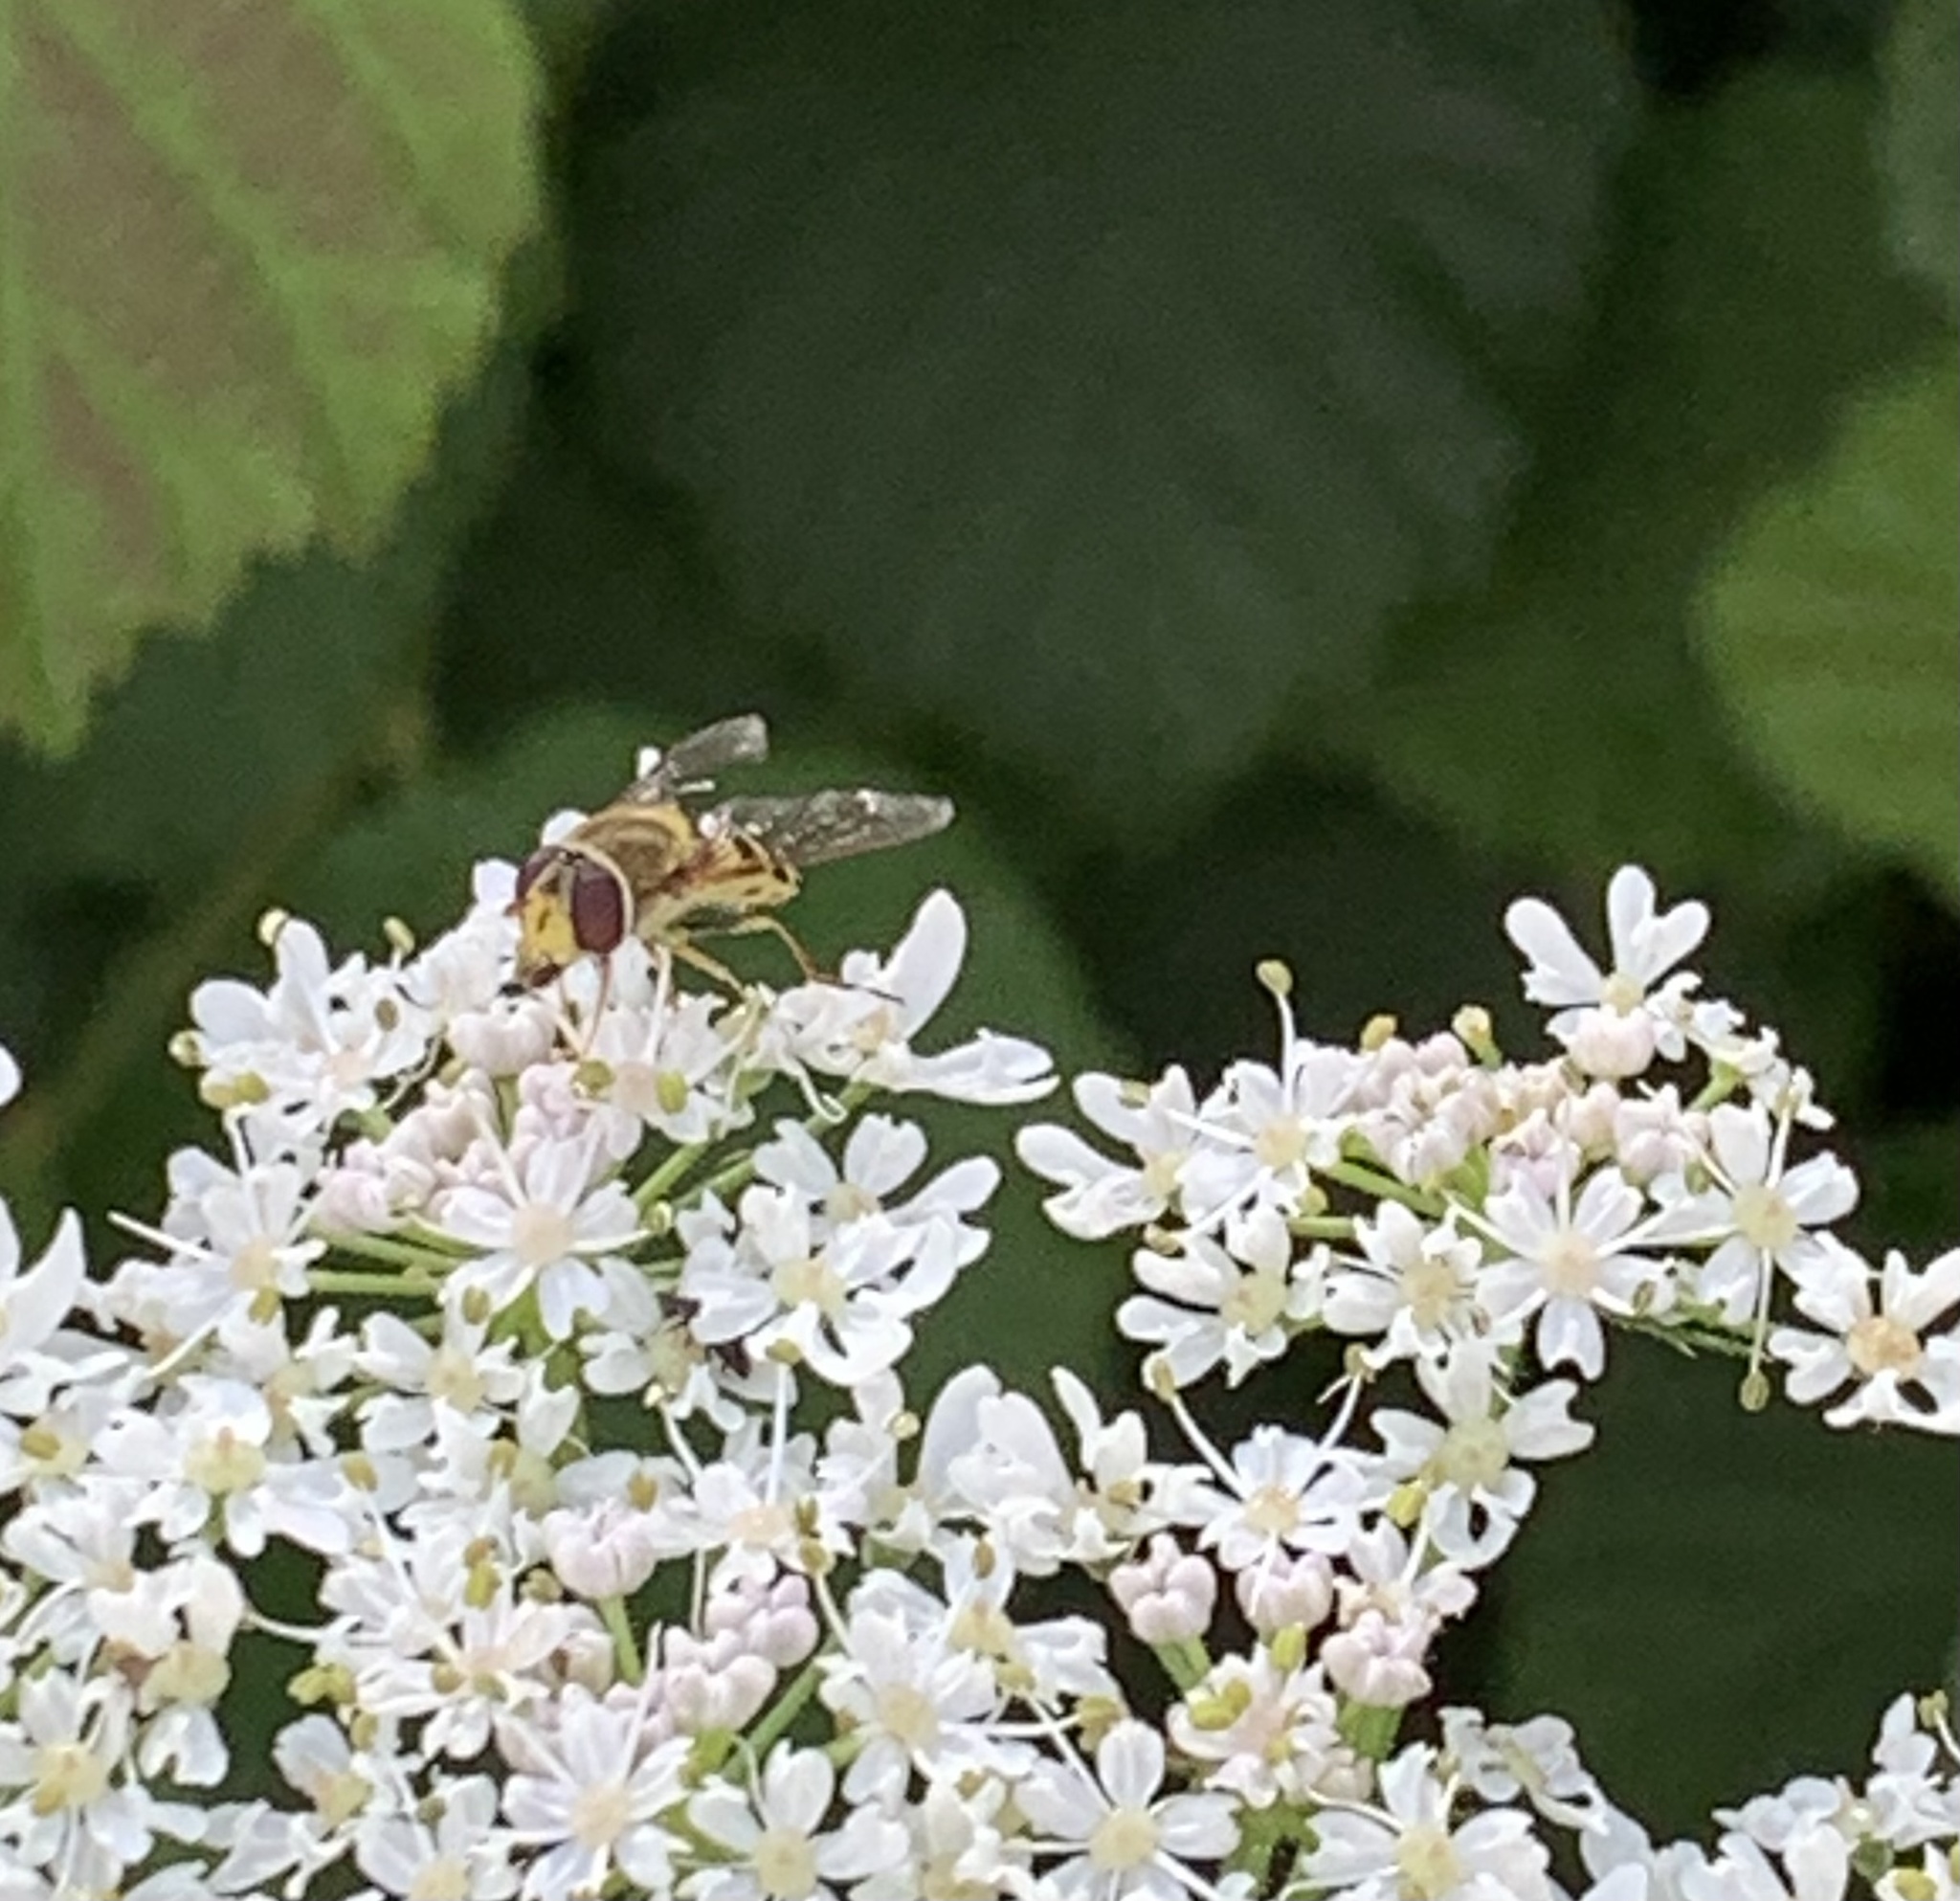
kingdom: Animalia
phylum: Arthropoda
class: Insecta
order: Diptera
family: Syrphidae
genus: Syrphus
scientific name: Syrphus
